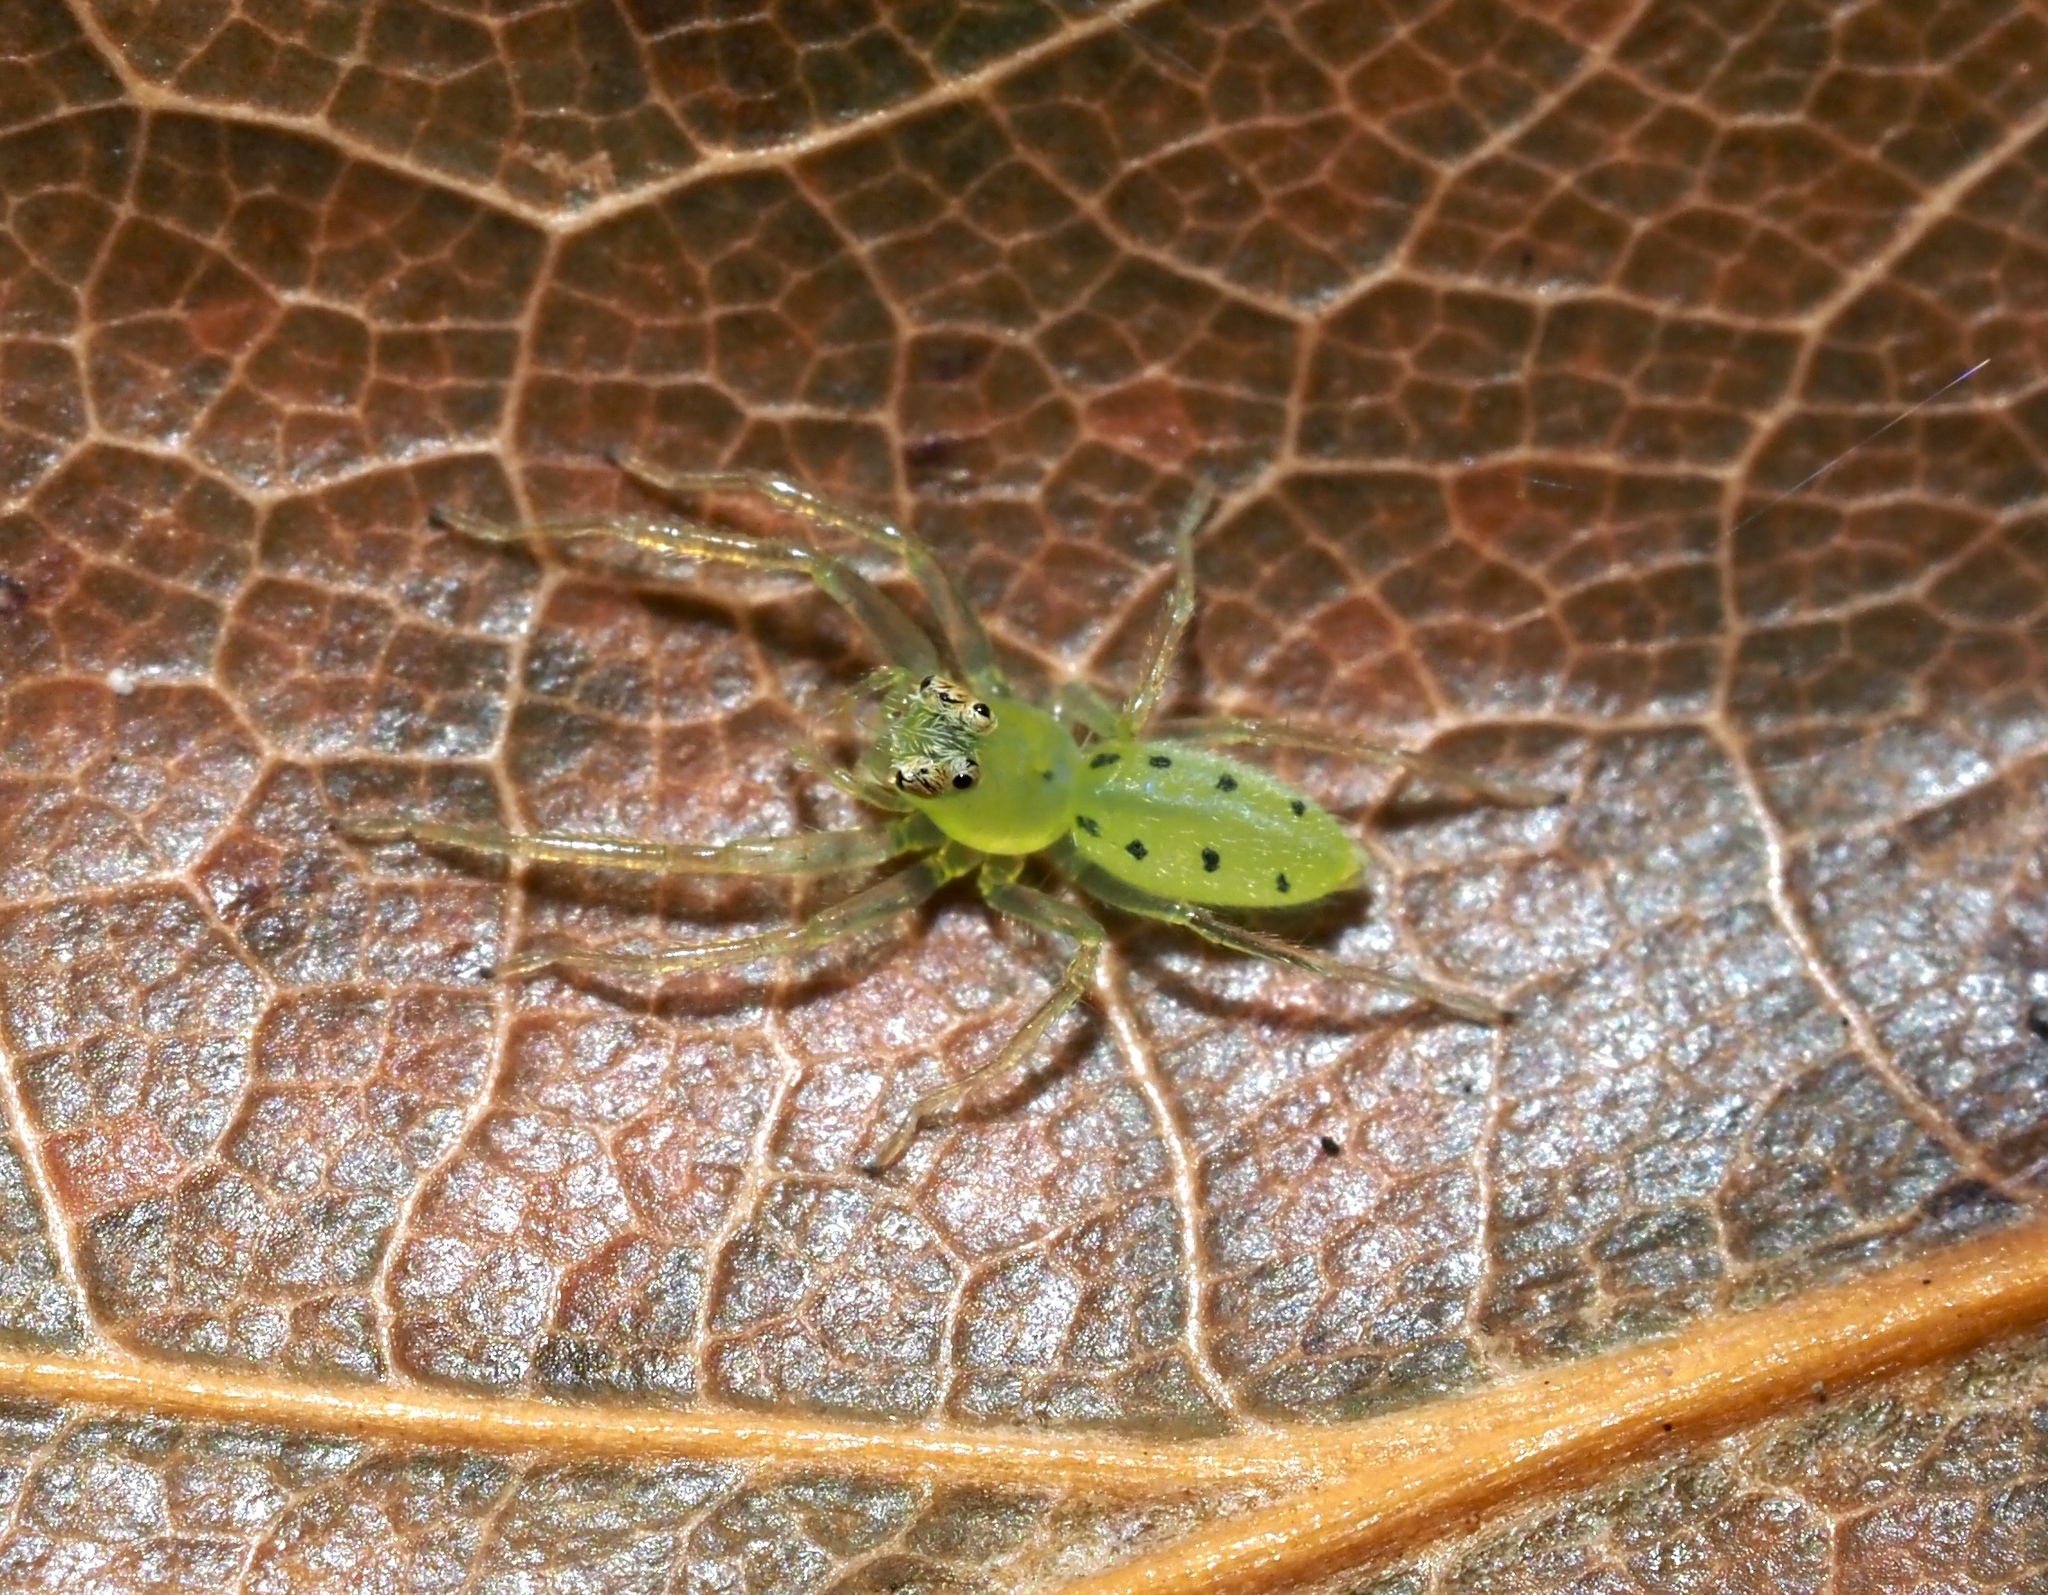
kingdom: Animalia
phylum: Arthropoda
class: Arachnida
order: Araneae
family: Salticidae
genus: Lyssomanes
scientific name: Lyssomanes viridis
